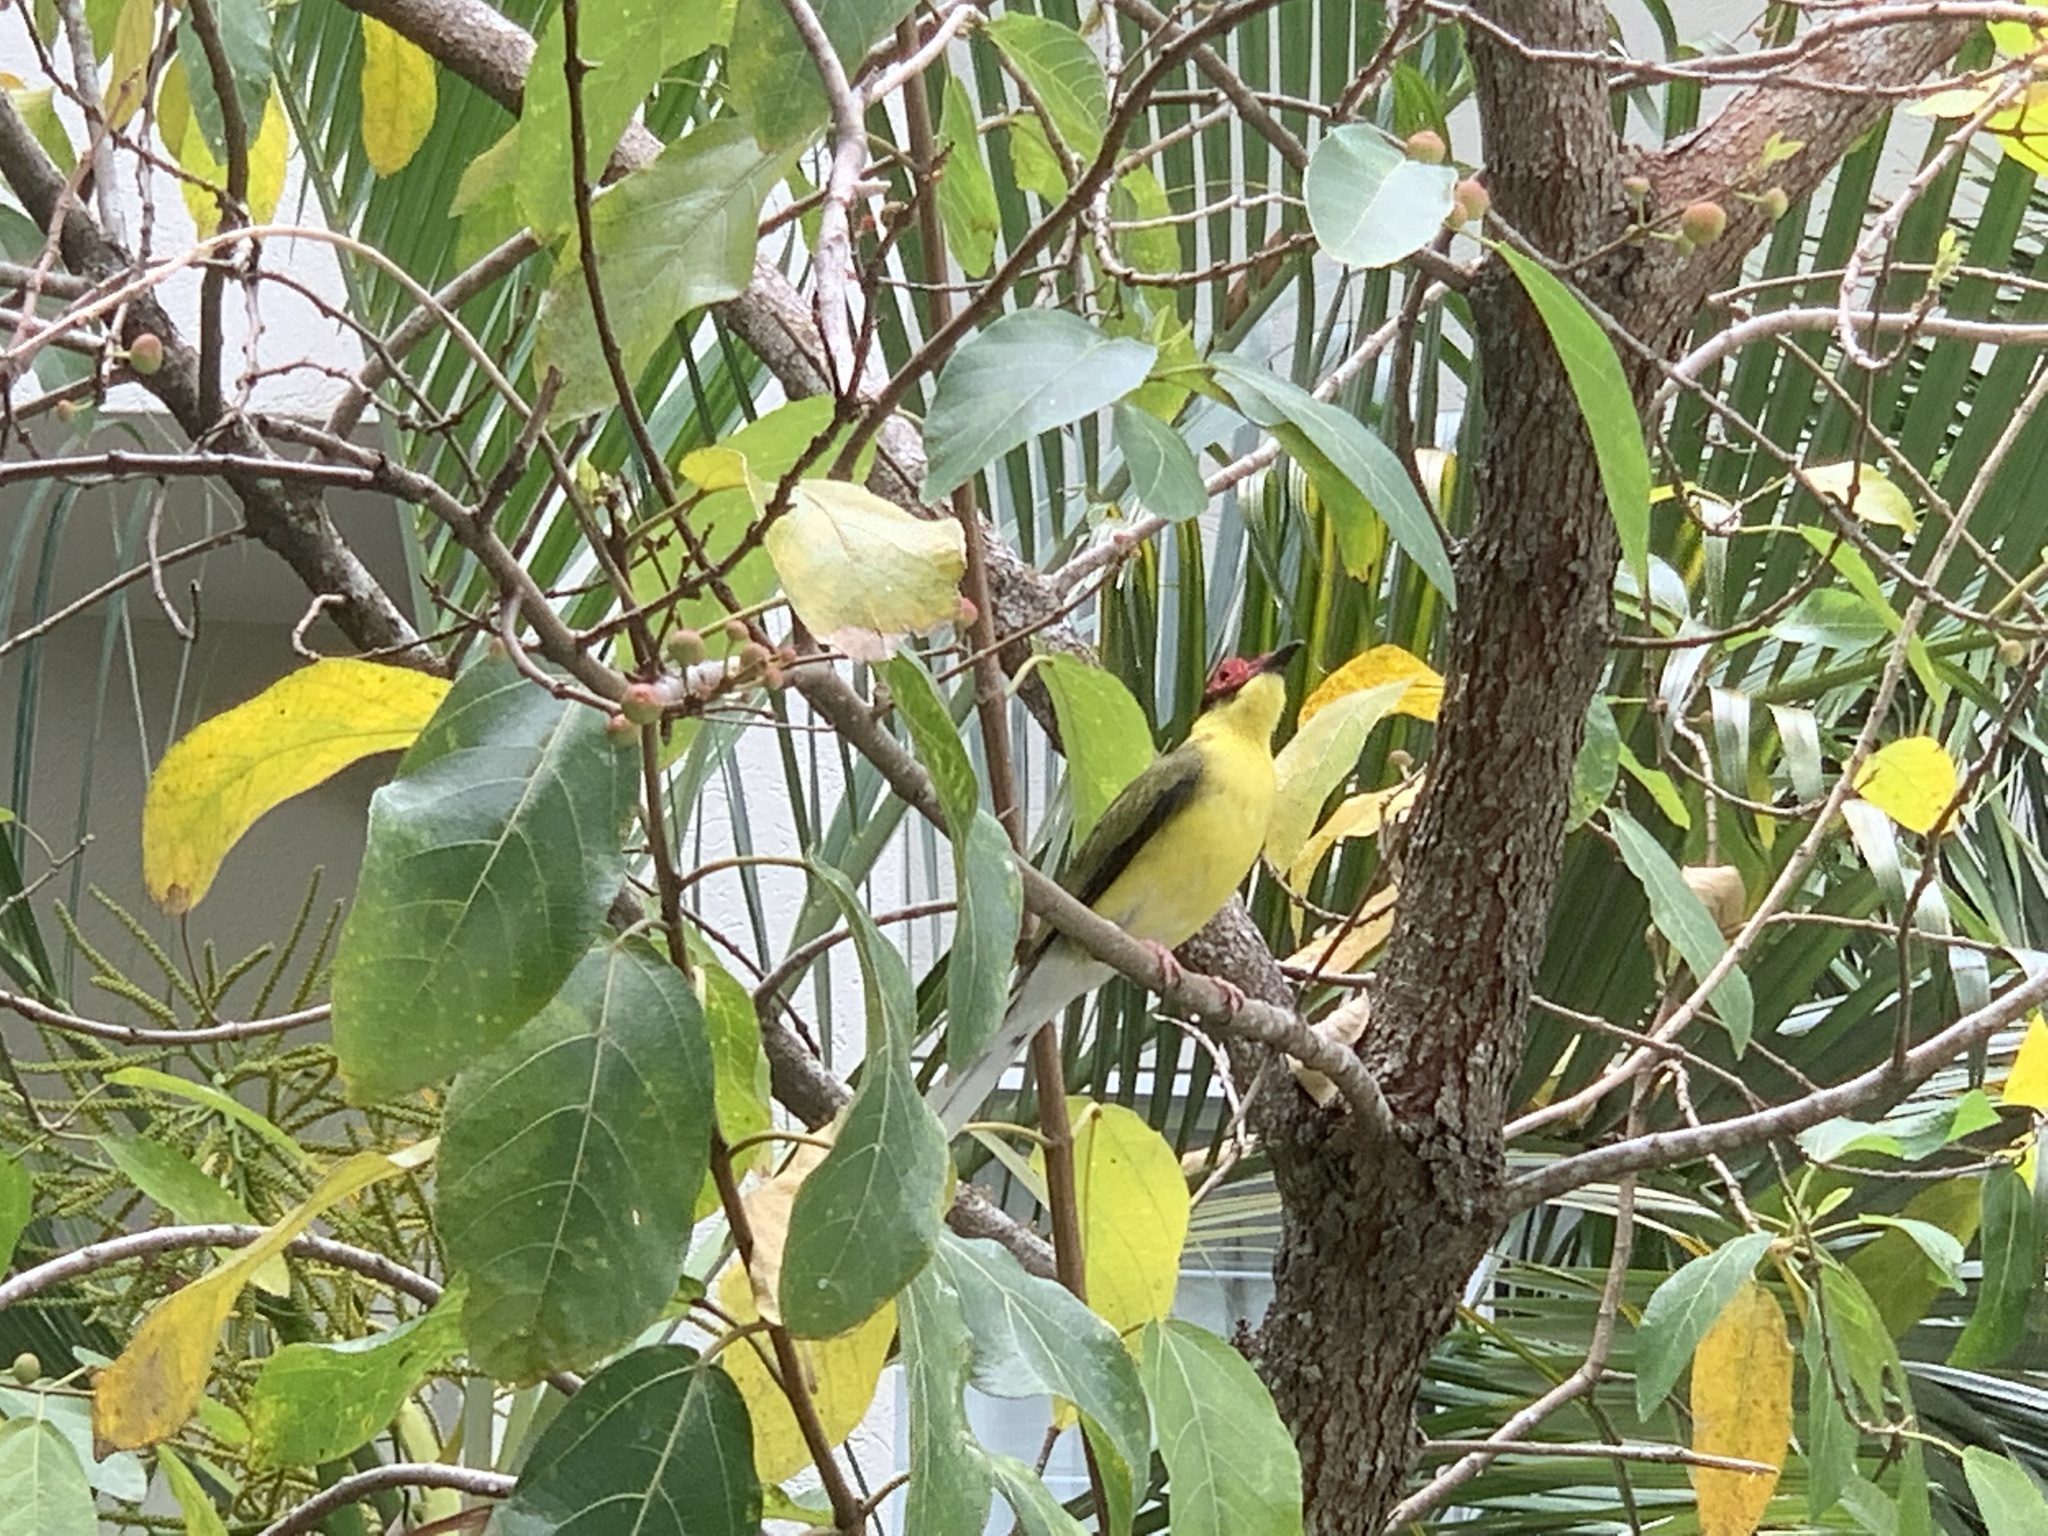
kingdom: Animalia
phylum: Chordata
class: Aves
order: Passeriformes
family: Oriolidae
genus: Sphecotheres
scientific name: Sphecotheres vieilloti
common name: Australasian figbird
